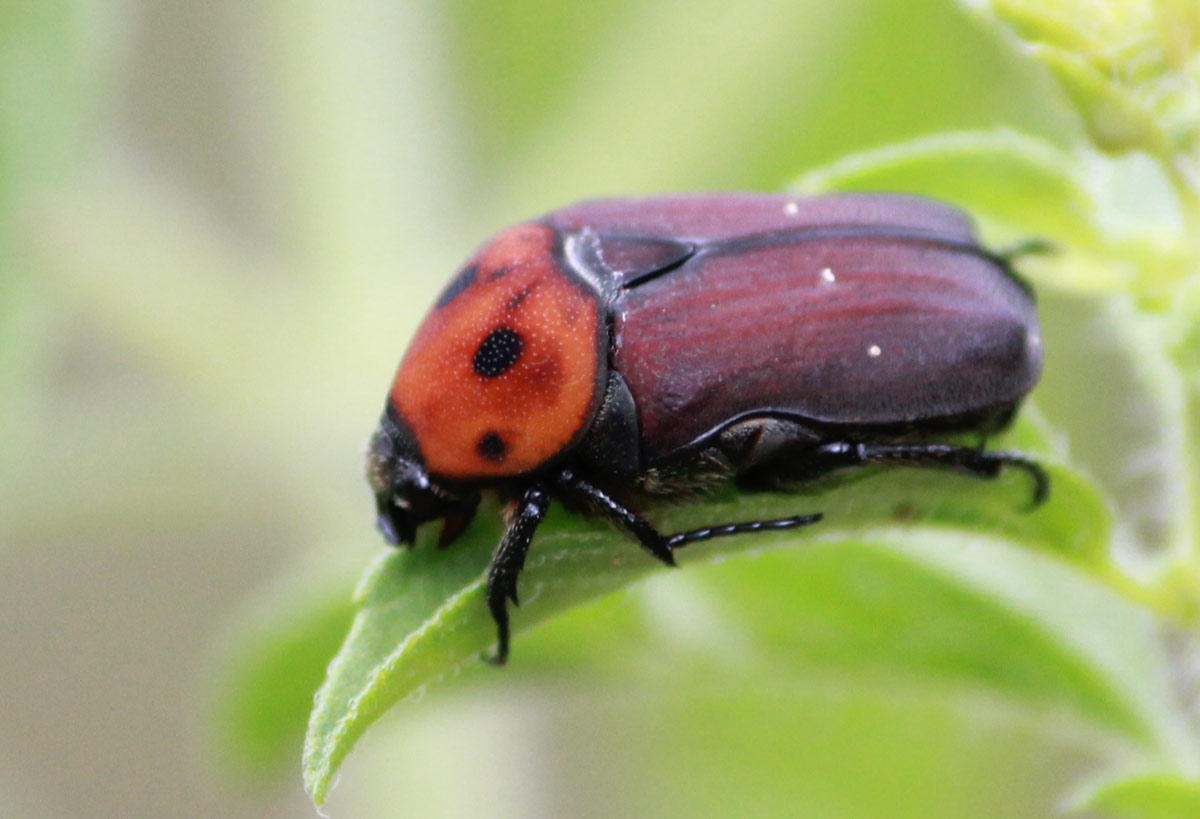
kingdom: Animalia
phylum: Arthropoda
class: Insecta
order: Coleoptera
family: Scarabaeidae
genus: Tephraea
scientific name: Tephraea dichroa
